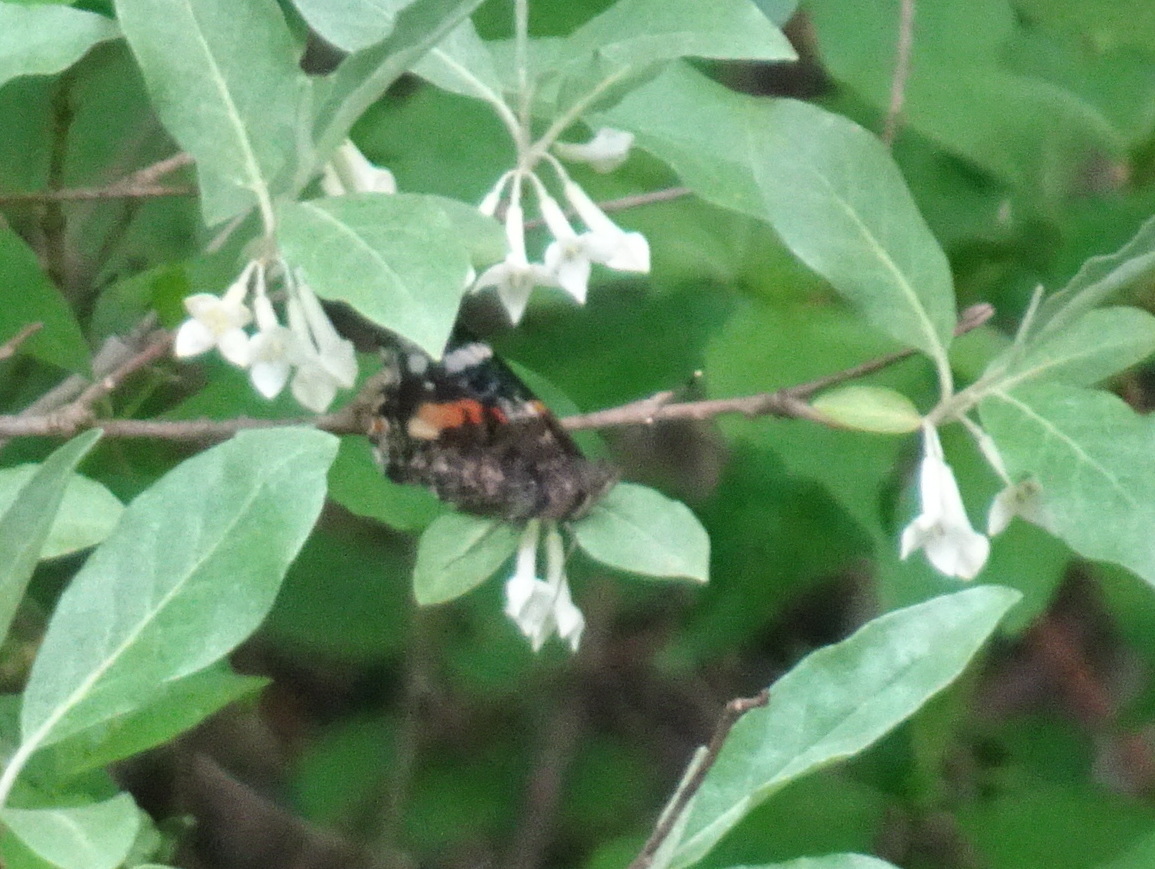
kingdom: Animalia
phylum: Arthropoda
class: Insecta
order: Lepidoptera
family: Nymphalidae
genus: Vanessa
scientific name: Vanessa atalanta
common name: Red admiral
